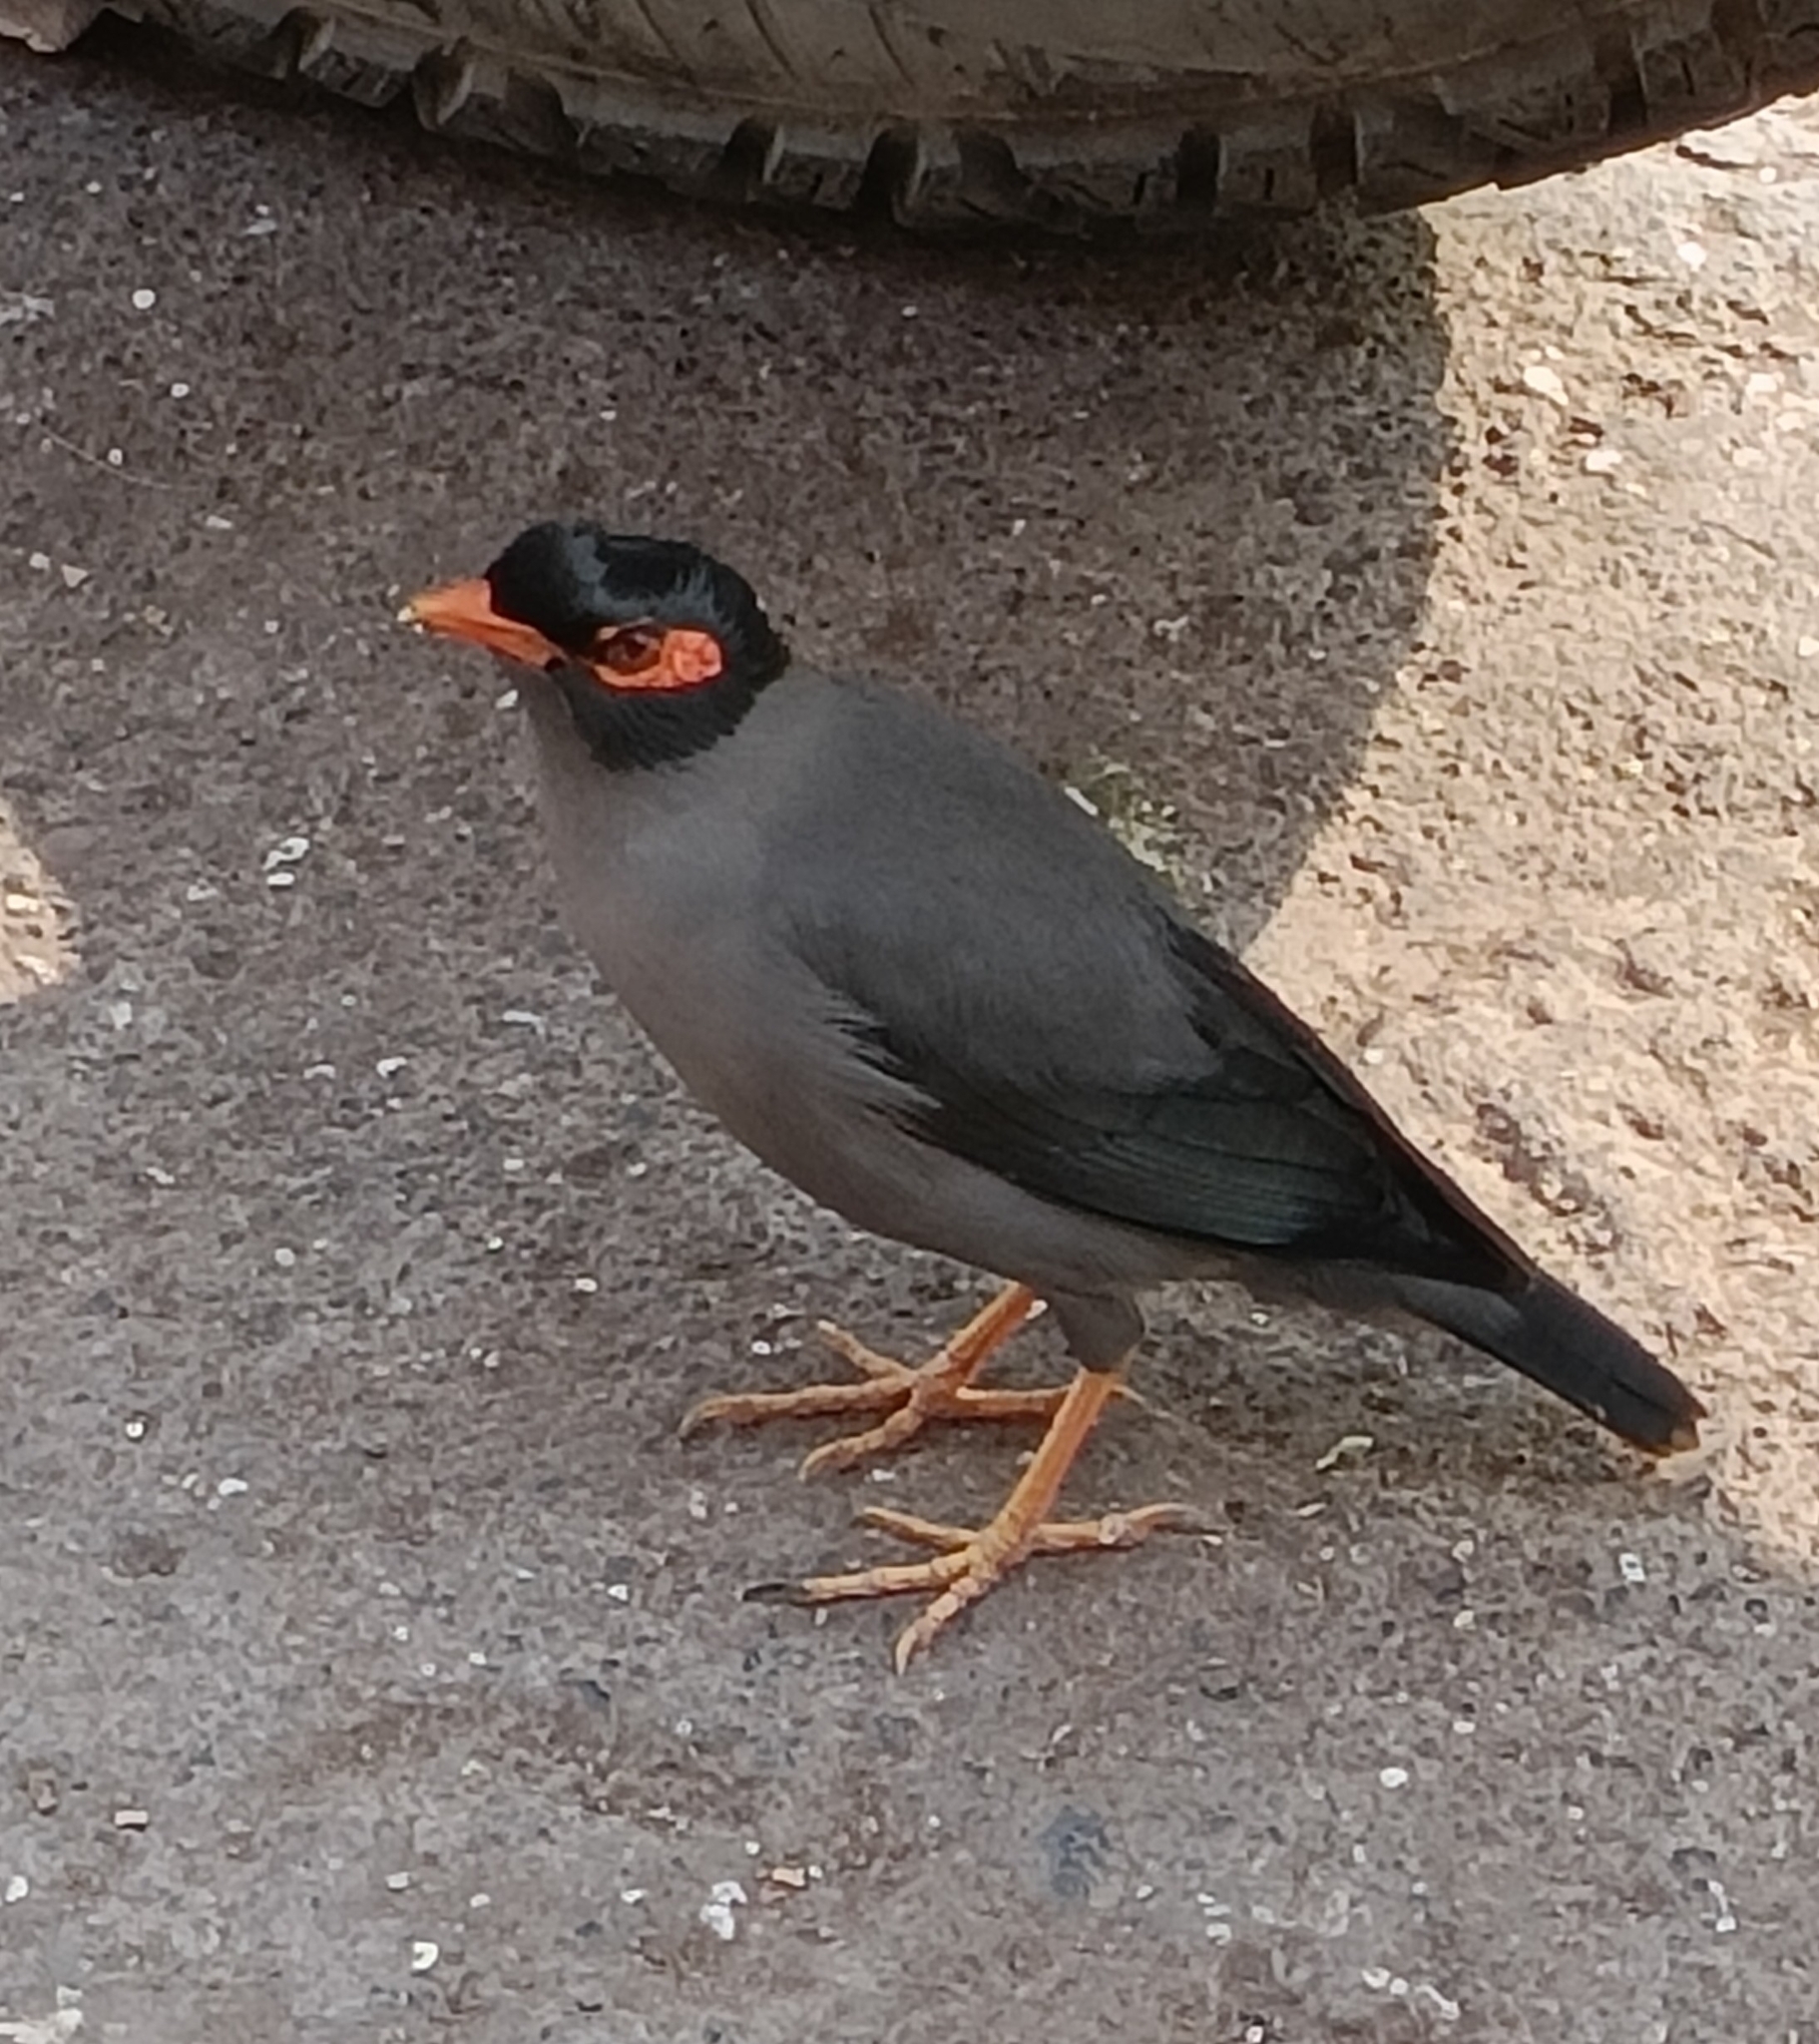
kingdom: Animalia
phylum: Chordata
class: Aves
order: Passeriformes
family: Sturnidae
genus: Acridotheres
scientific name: Acridotheres ginginianus
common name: Bank myna
